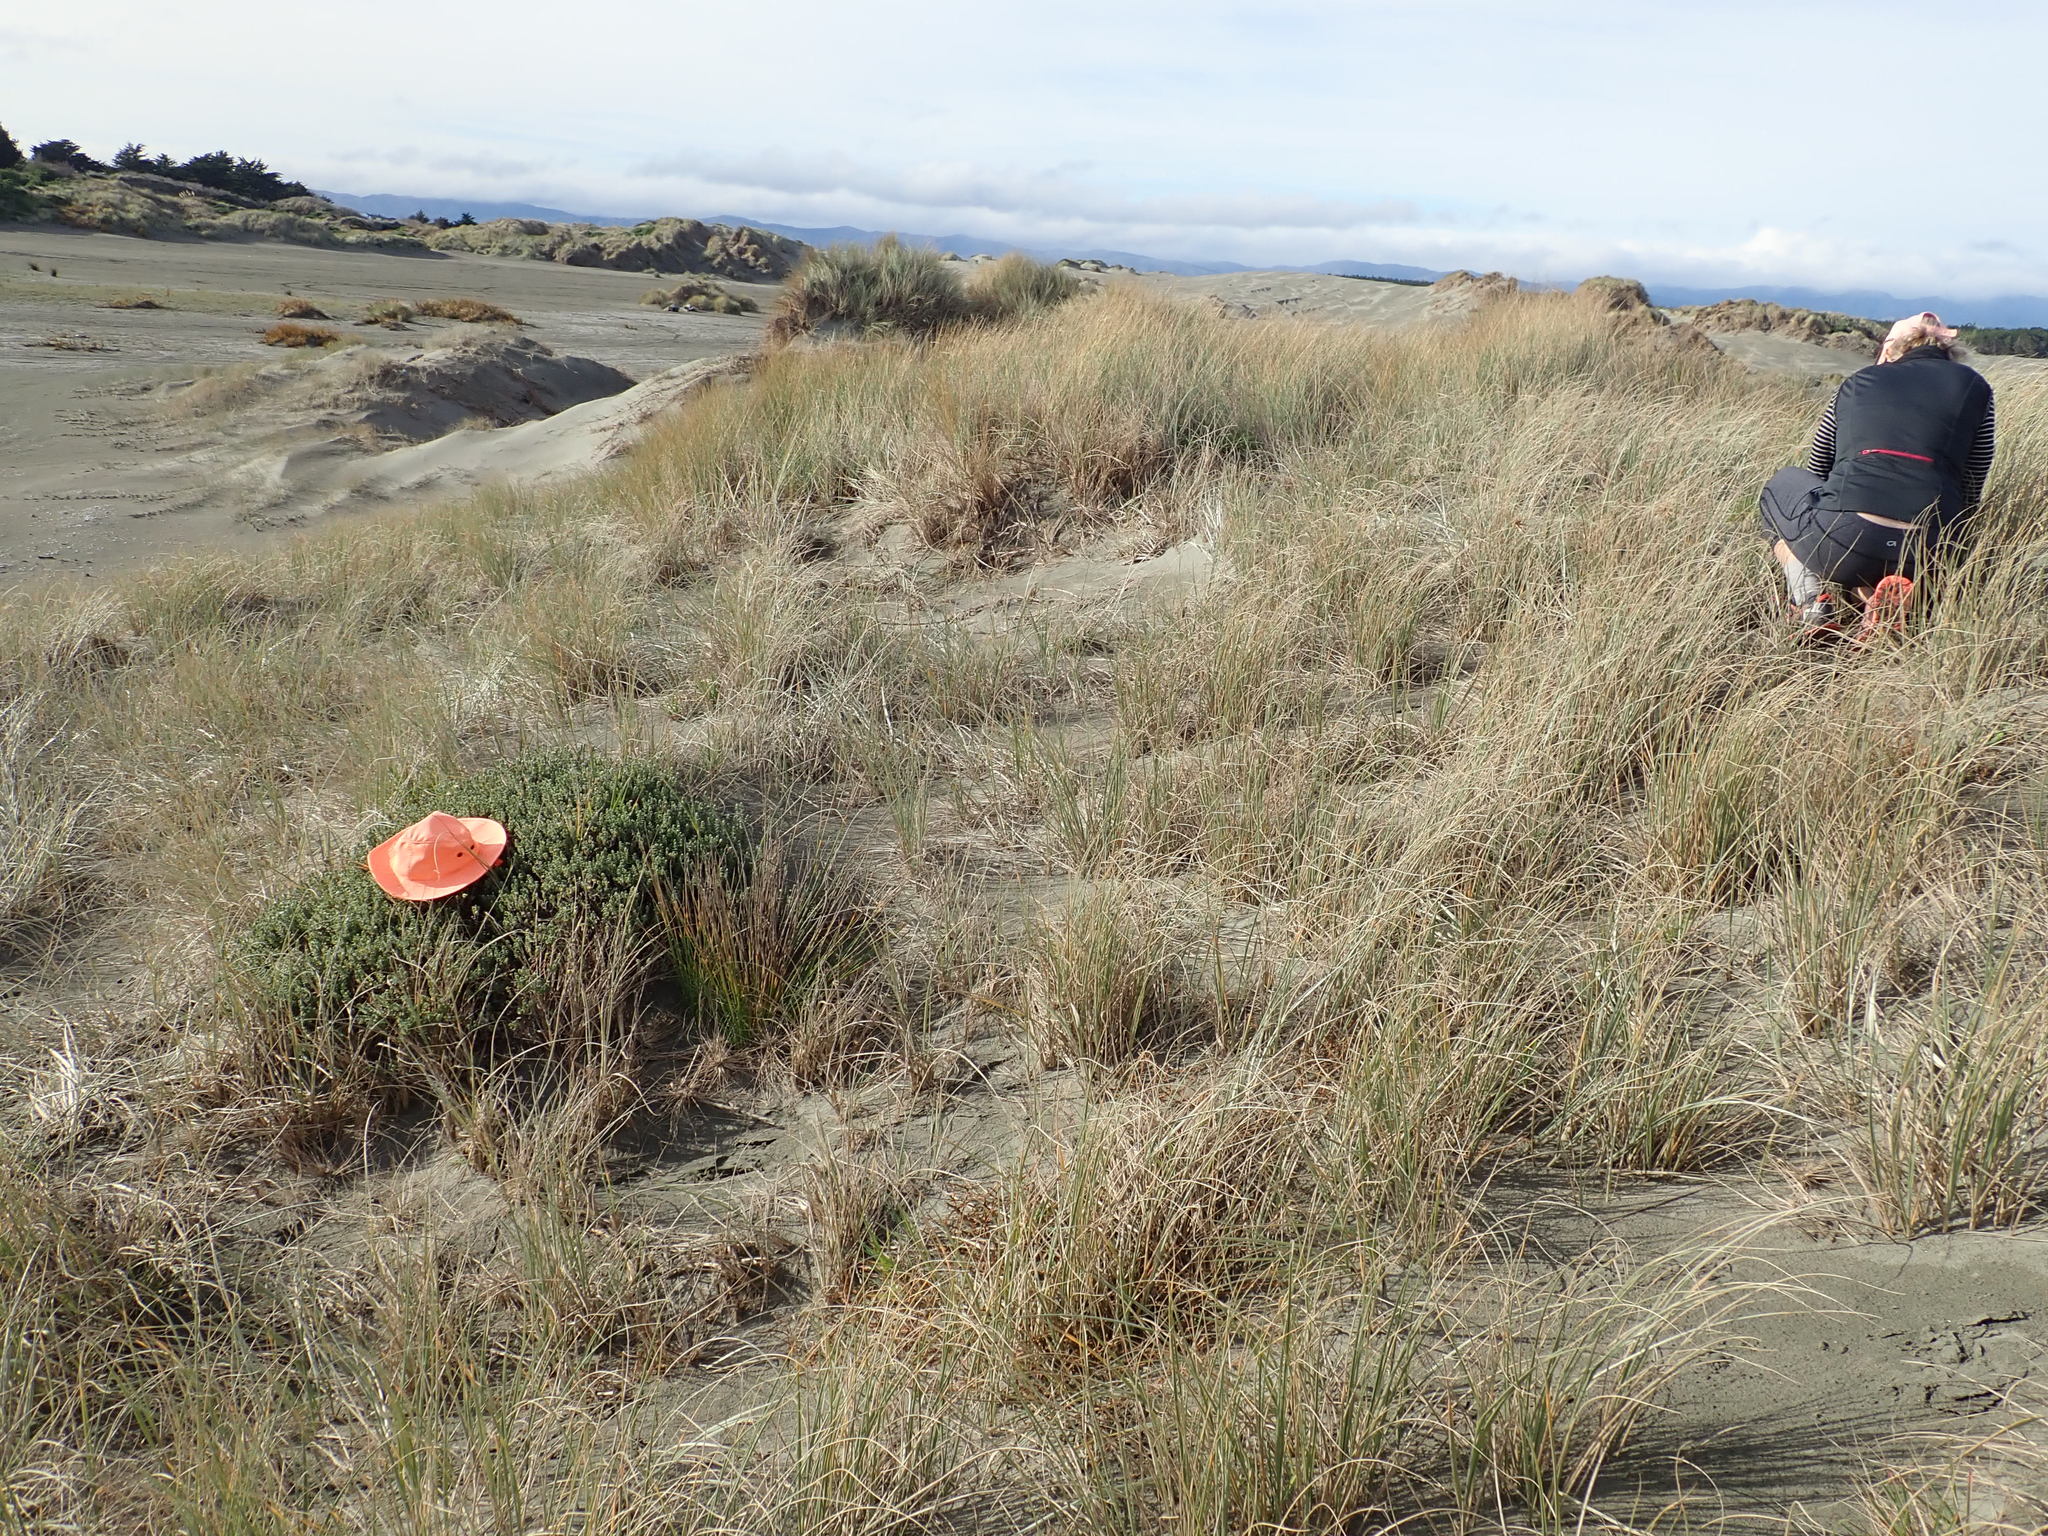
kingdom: Animalia
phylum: Arthropoda
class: Arachnida
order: Araneae
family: Theridiidae
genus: Latrodectus
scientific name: Latrodectus katipo
